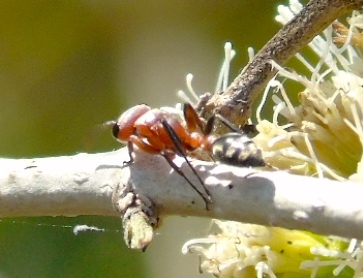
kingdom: Animalia
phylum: Arthropoda
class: Insecta
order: Hymenoptera
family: Formicidae
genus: Pseudomyrmex
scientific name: Pseudomyrmex gracilis
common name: Graceful twig ant
